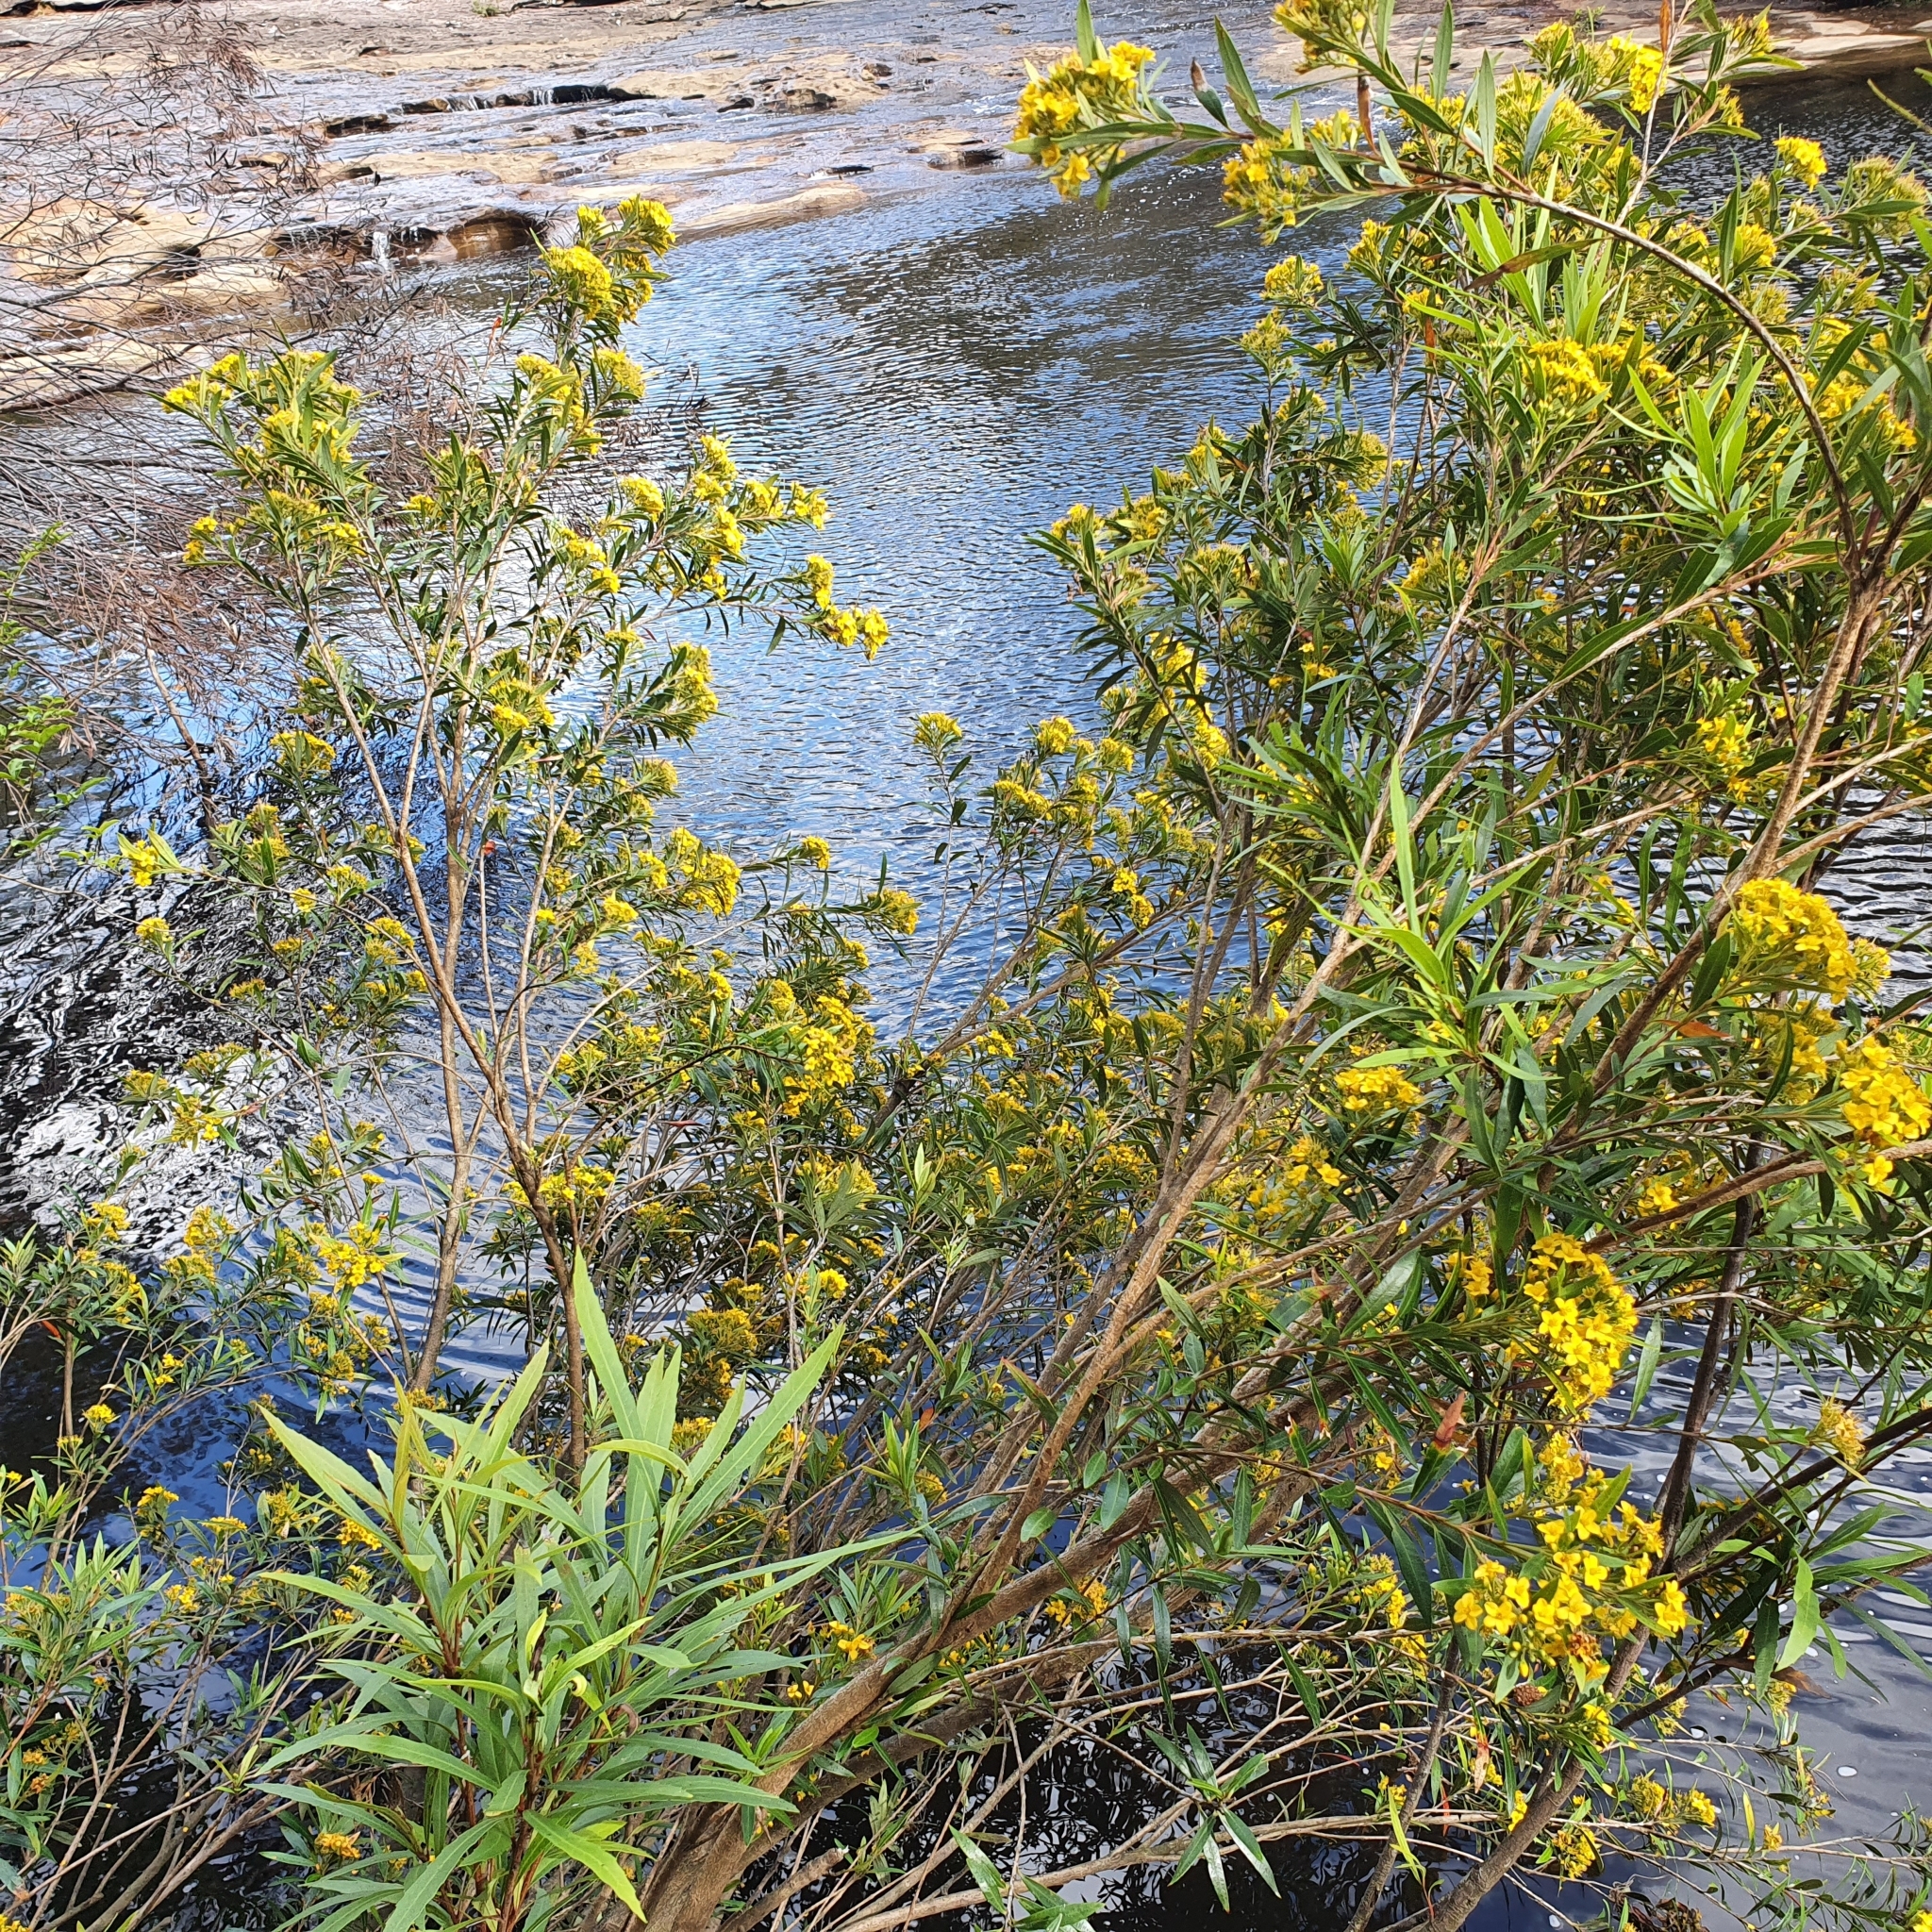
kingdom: Plantae
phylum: Tracheophyta
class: Magnoliopsida
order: Myrtales
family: Myrtaceae
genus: Tristania
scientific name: Tristania neriifolia
